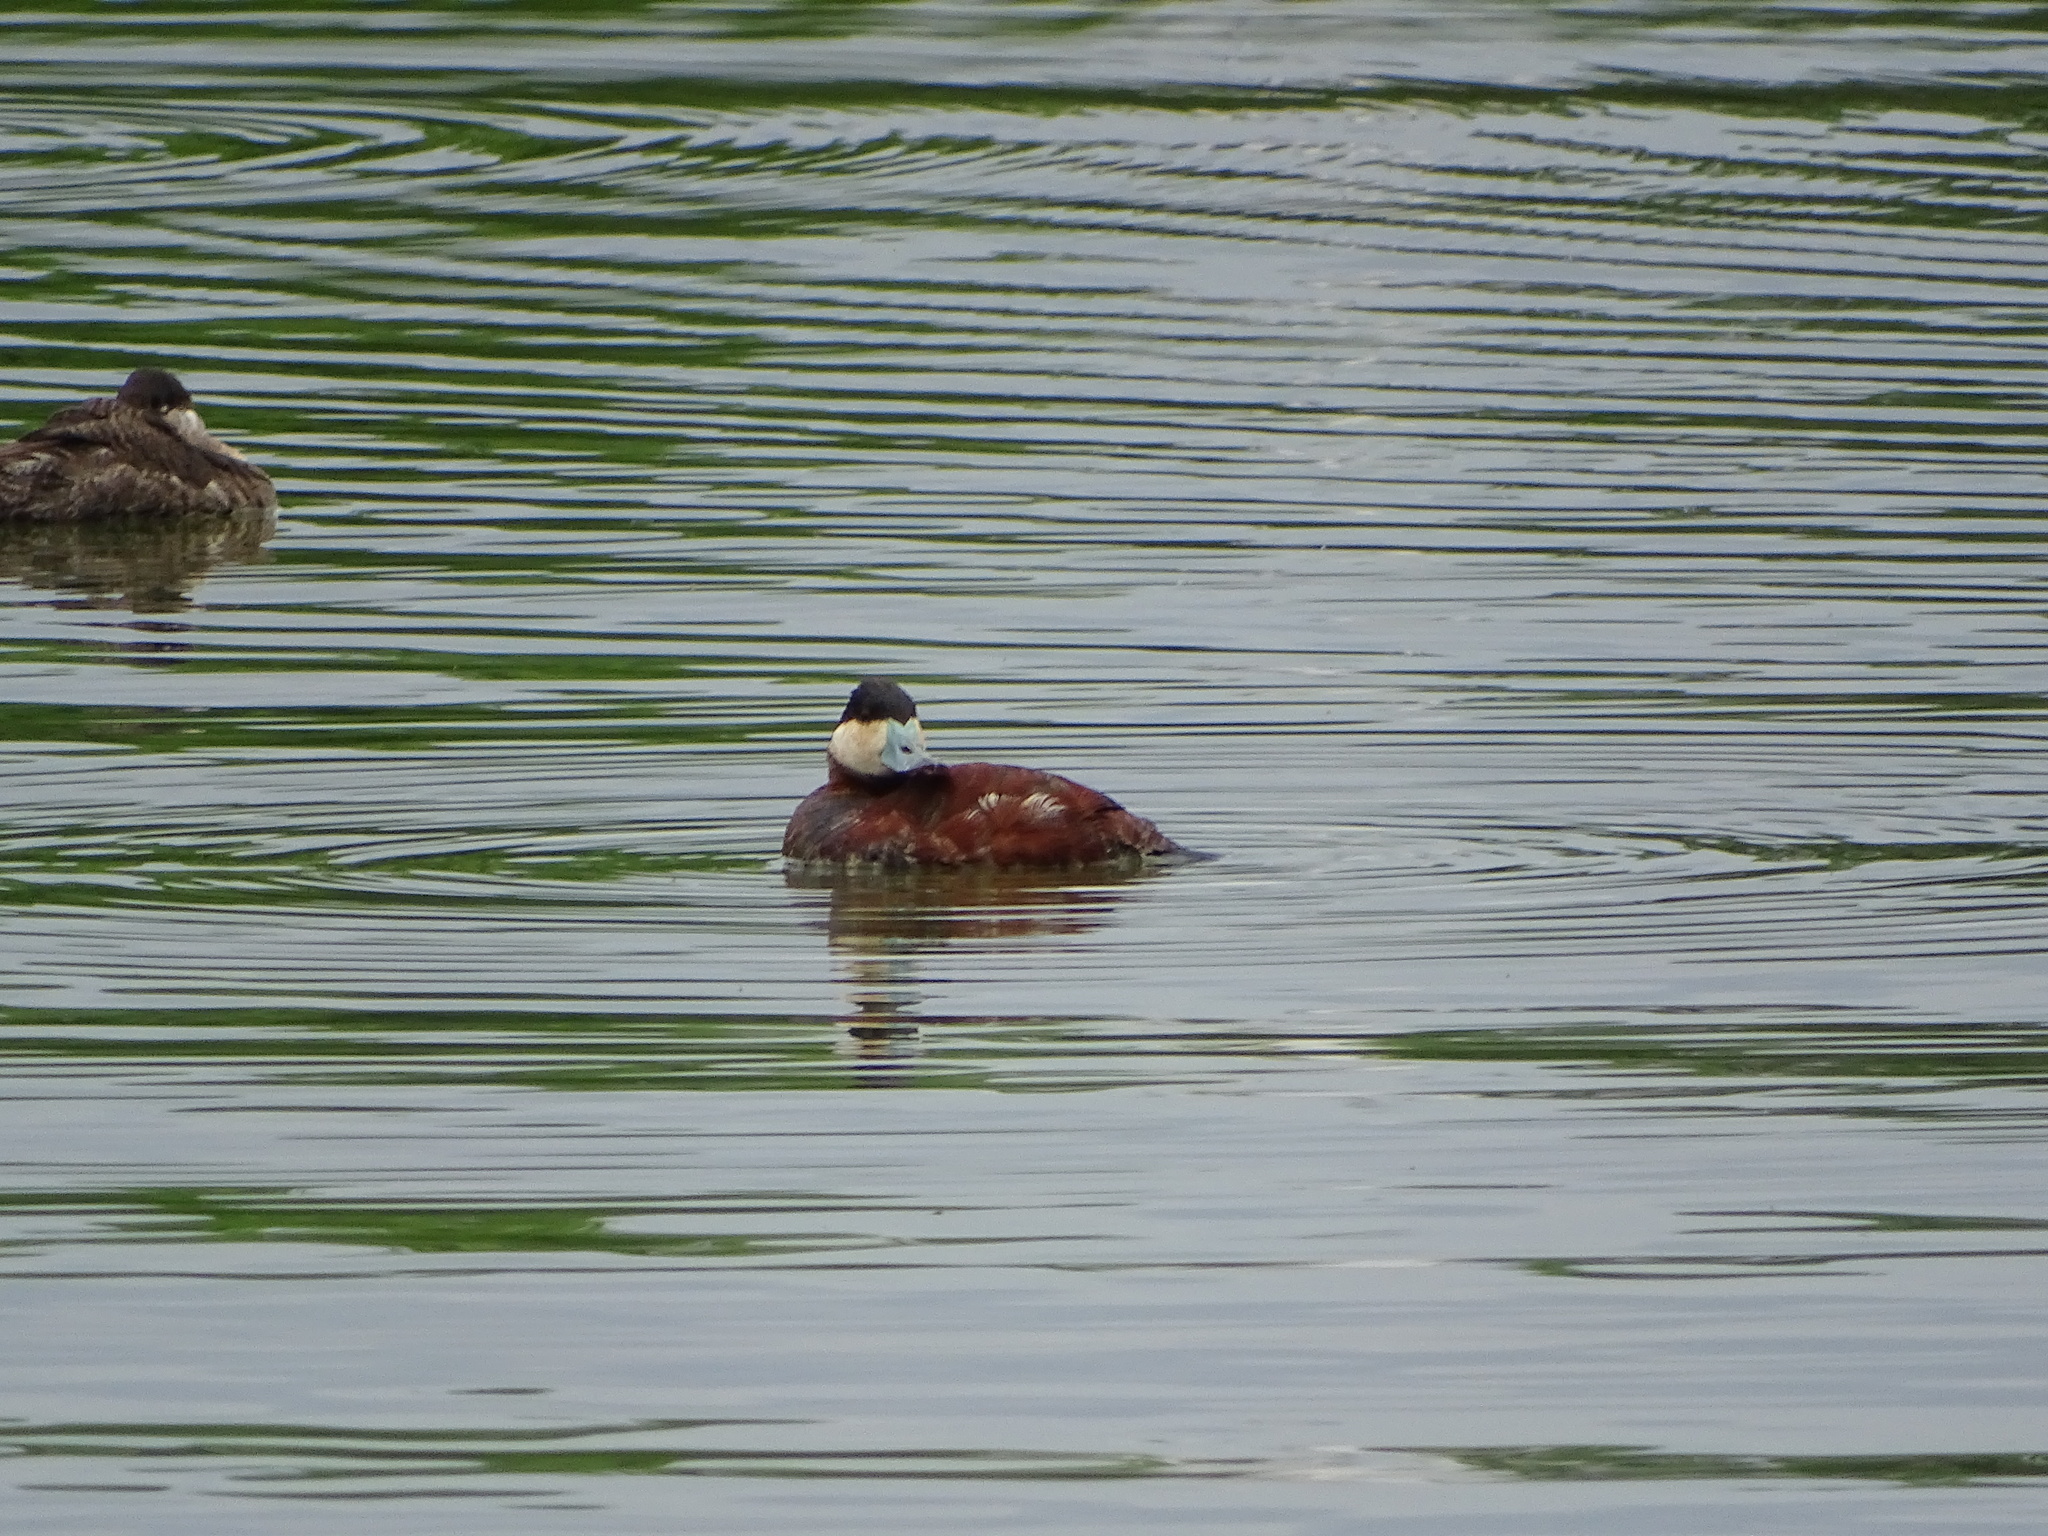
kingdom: Animalia
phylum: Chordata
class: Aves
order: Anseriformes
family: Anatidae
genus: Oxyura
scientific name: Oxyura jamaicensis
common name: Ruddy duck
